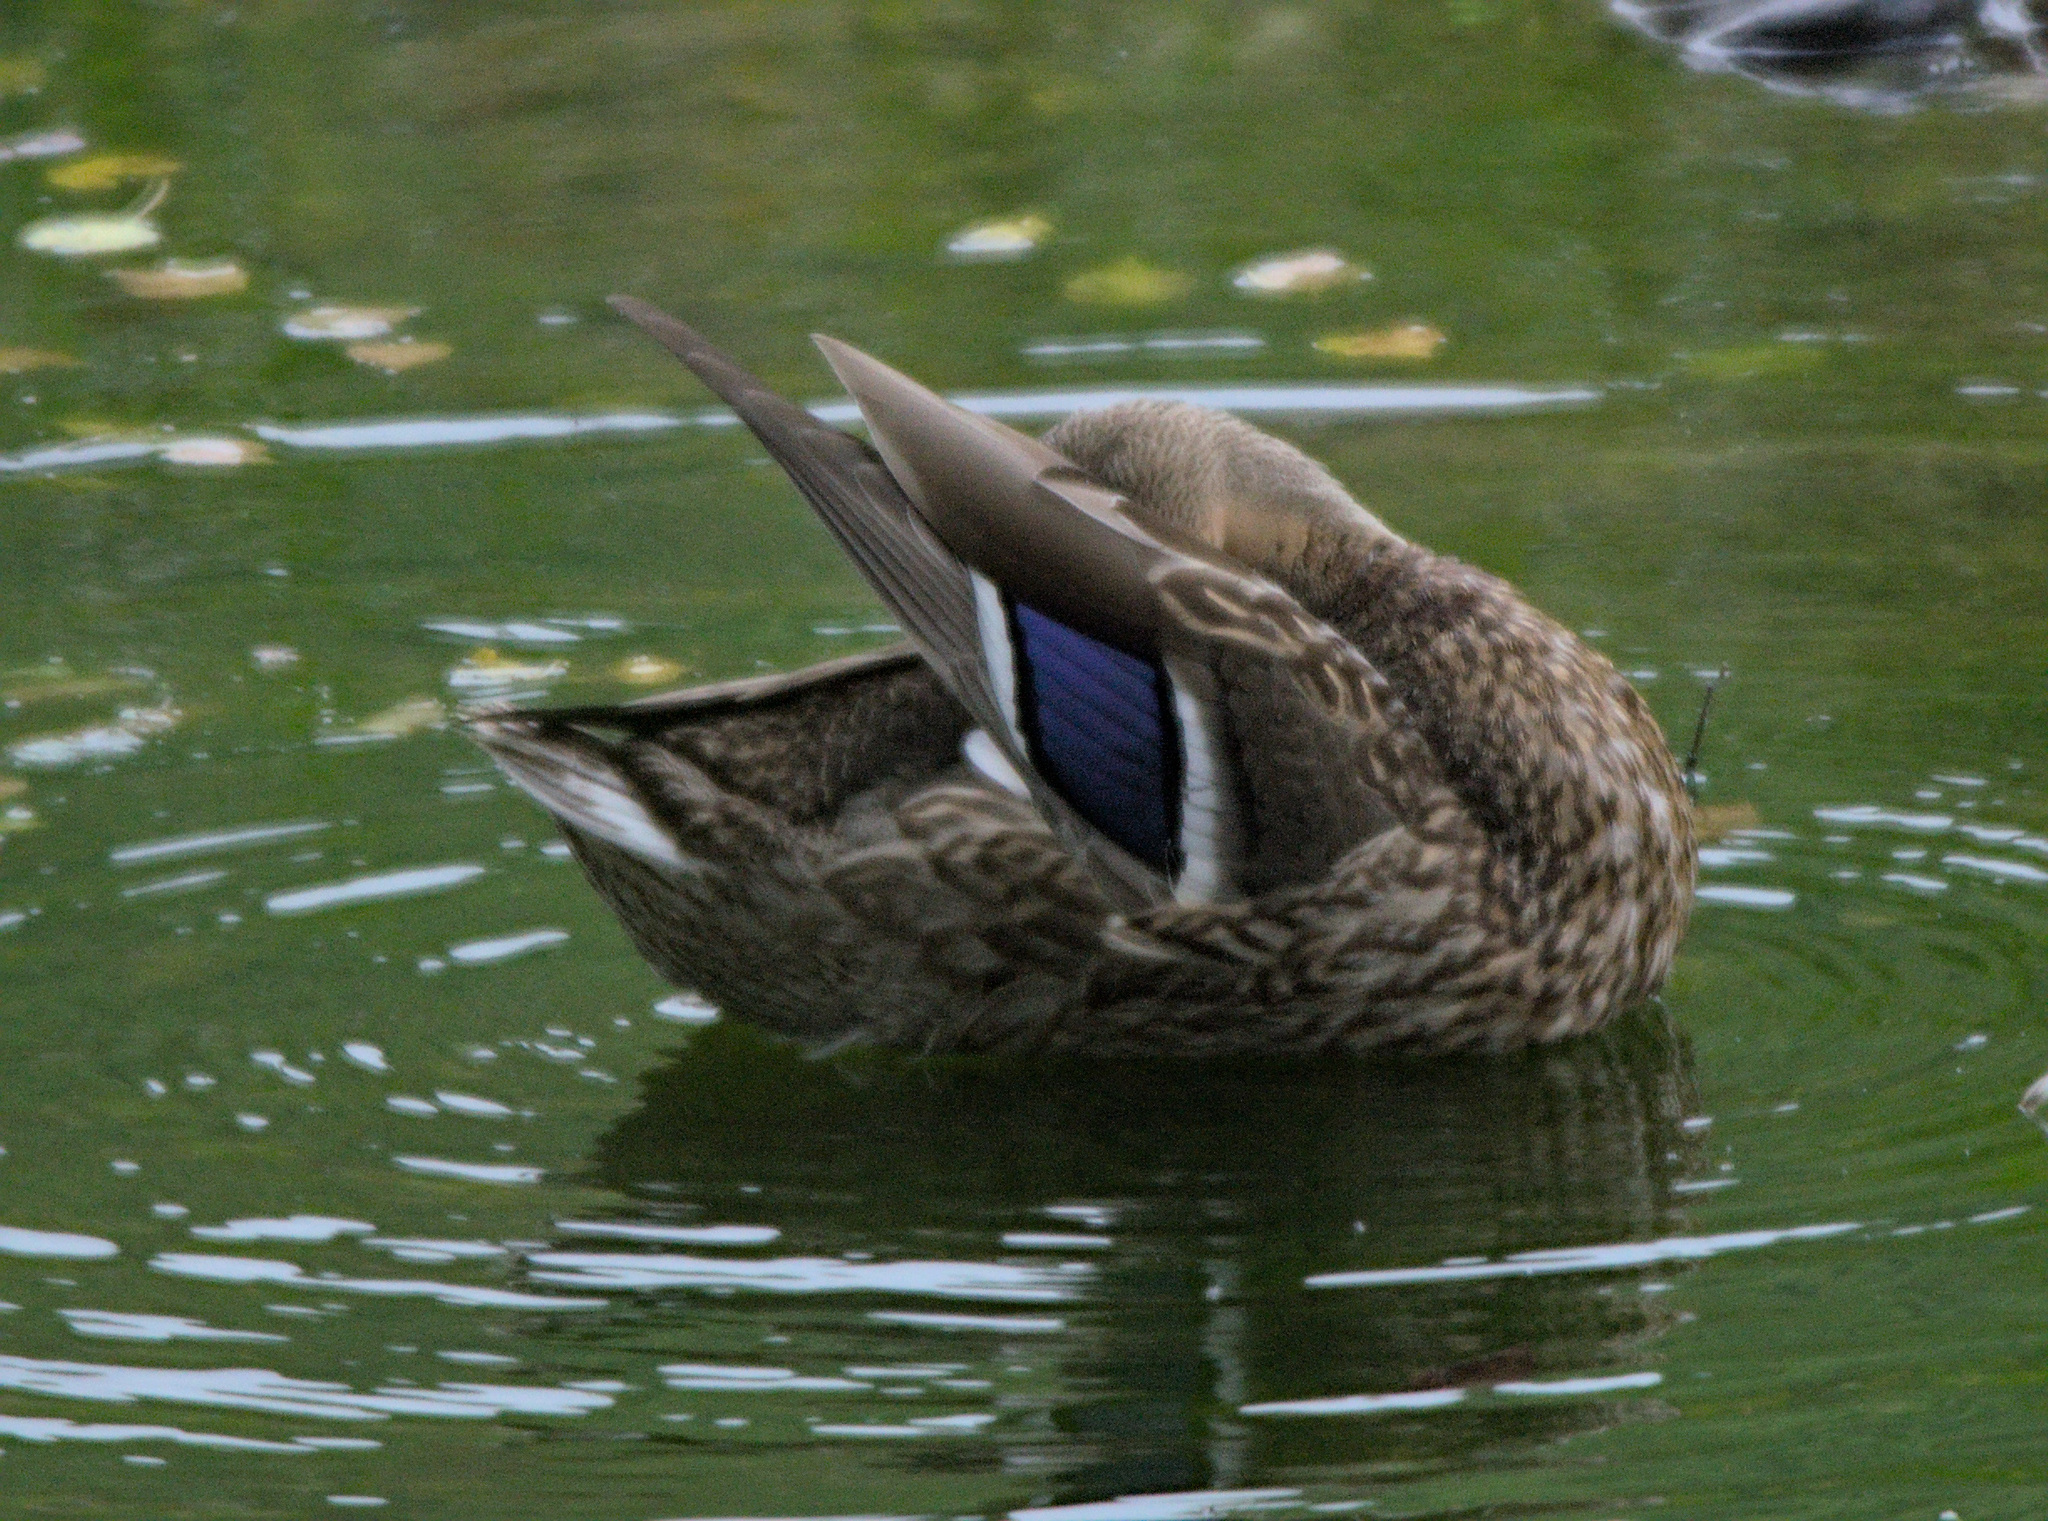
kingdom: Animalia
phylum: Chordata
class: Aves
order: Anseriformes
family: Anatidae
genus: Anas
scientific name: Anas platyrhynchos
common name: Mallard
